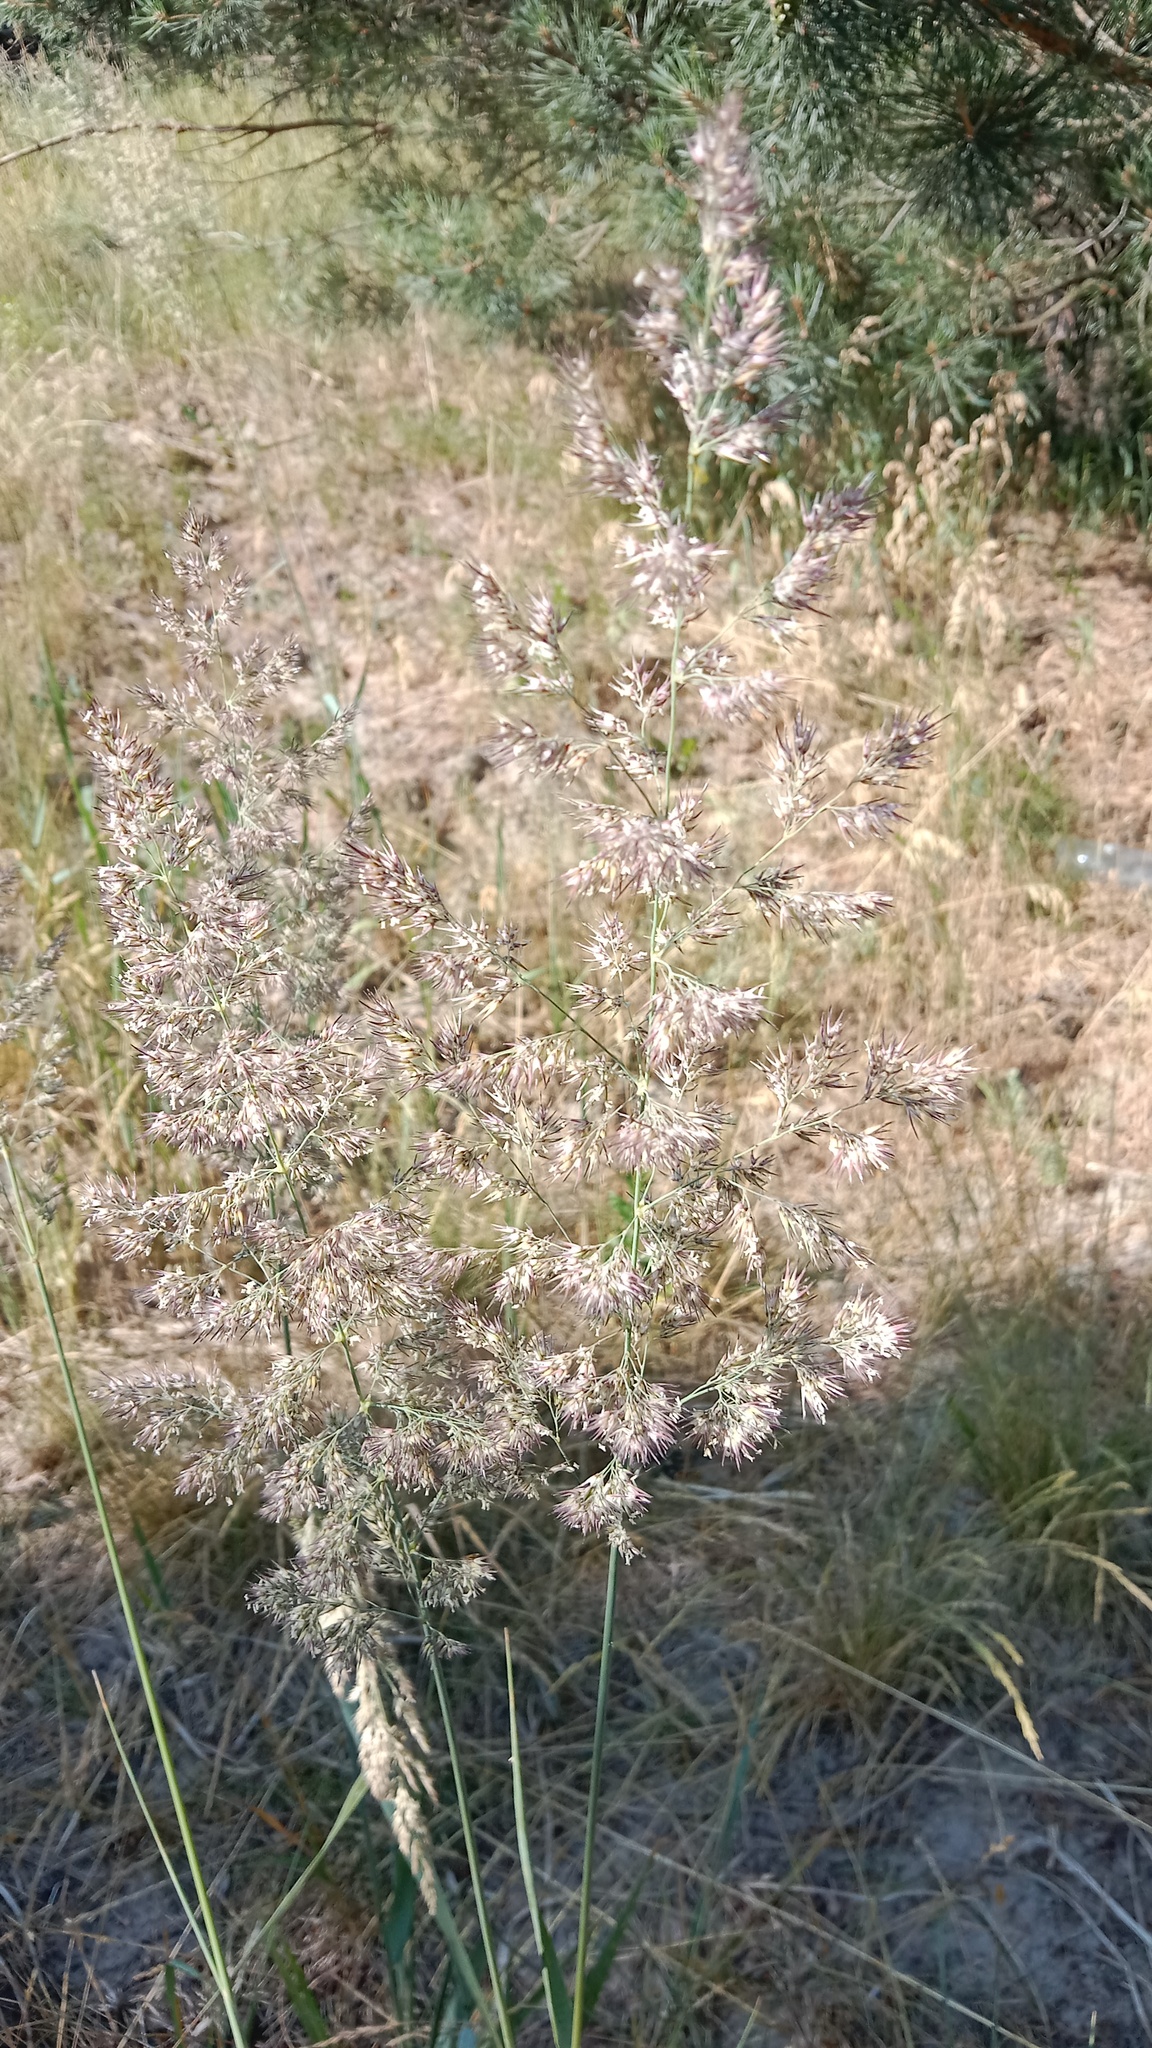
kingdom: Plantae
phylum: Tracheophyta
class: Liliopsida
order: Poales
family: Poaceae
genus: Calamagrostis
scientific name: Calamagrostis epigejos
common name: Wood small-reed
